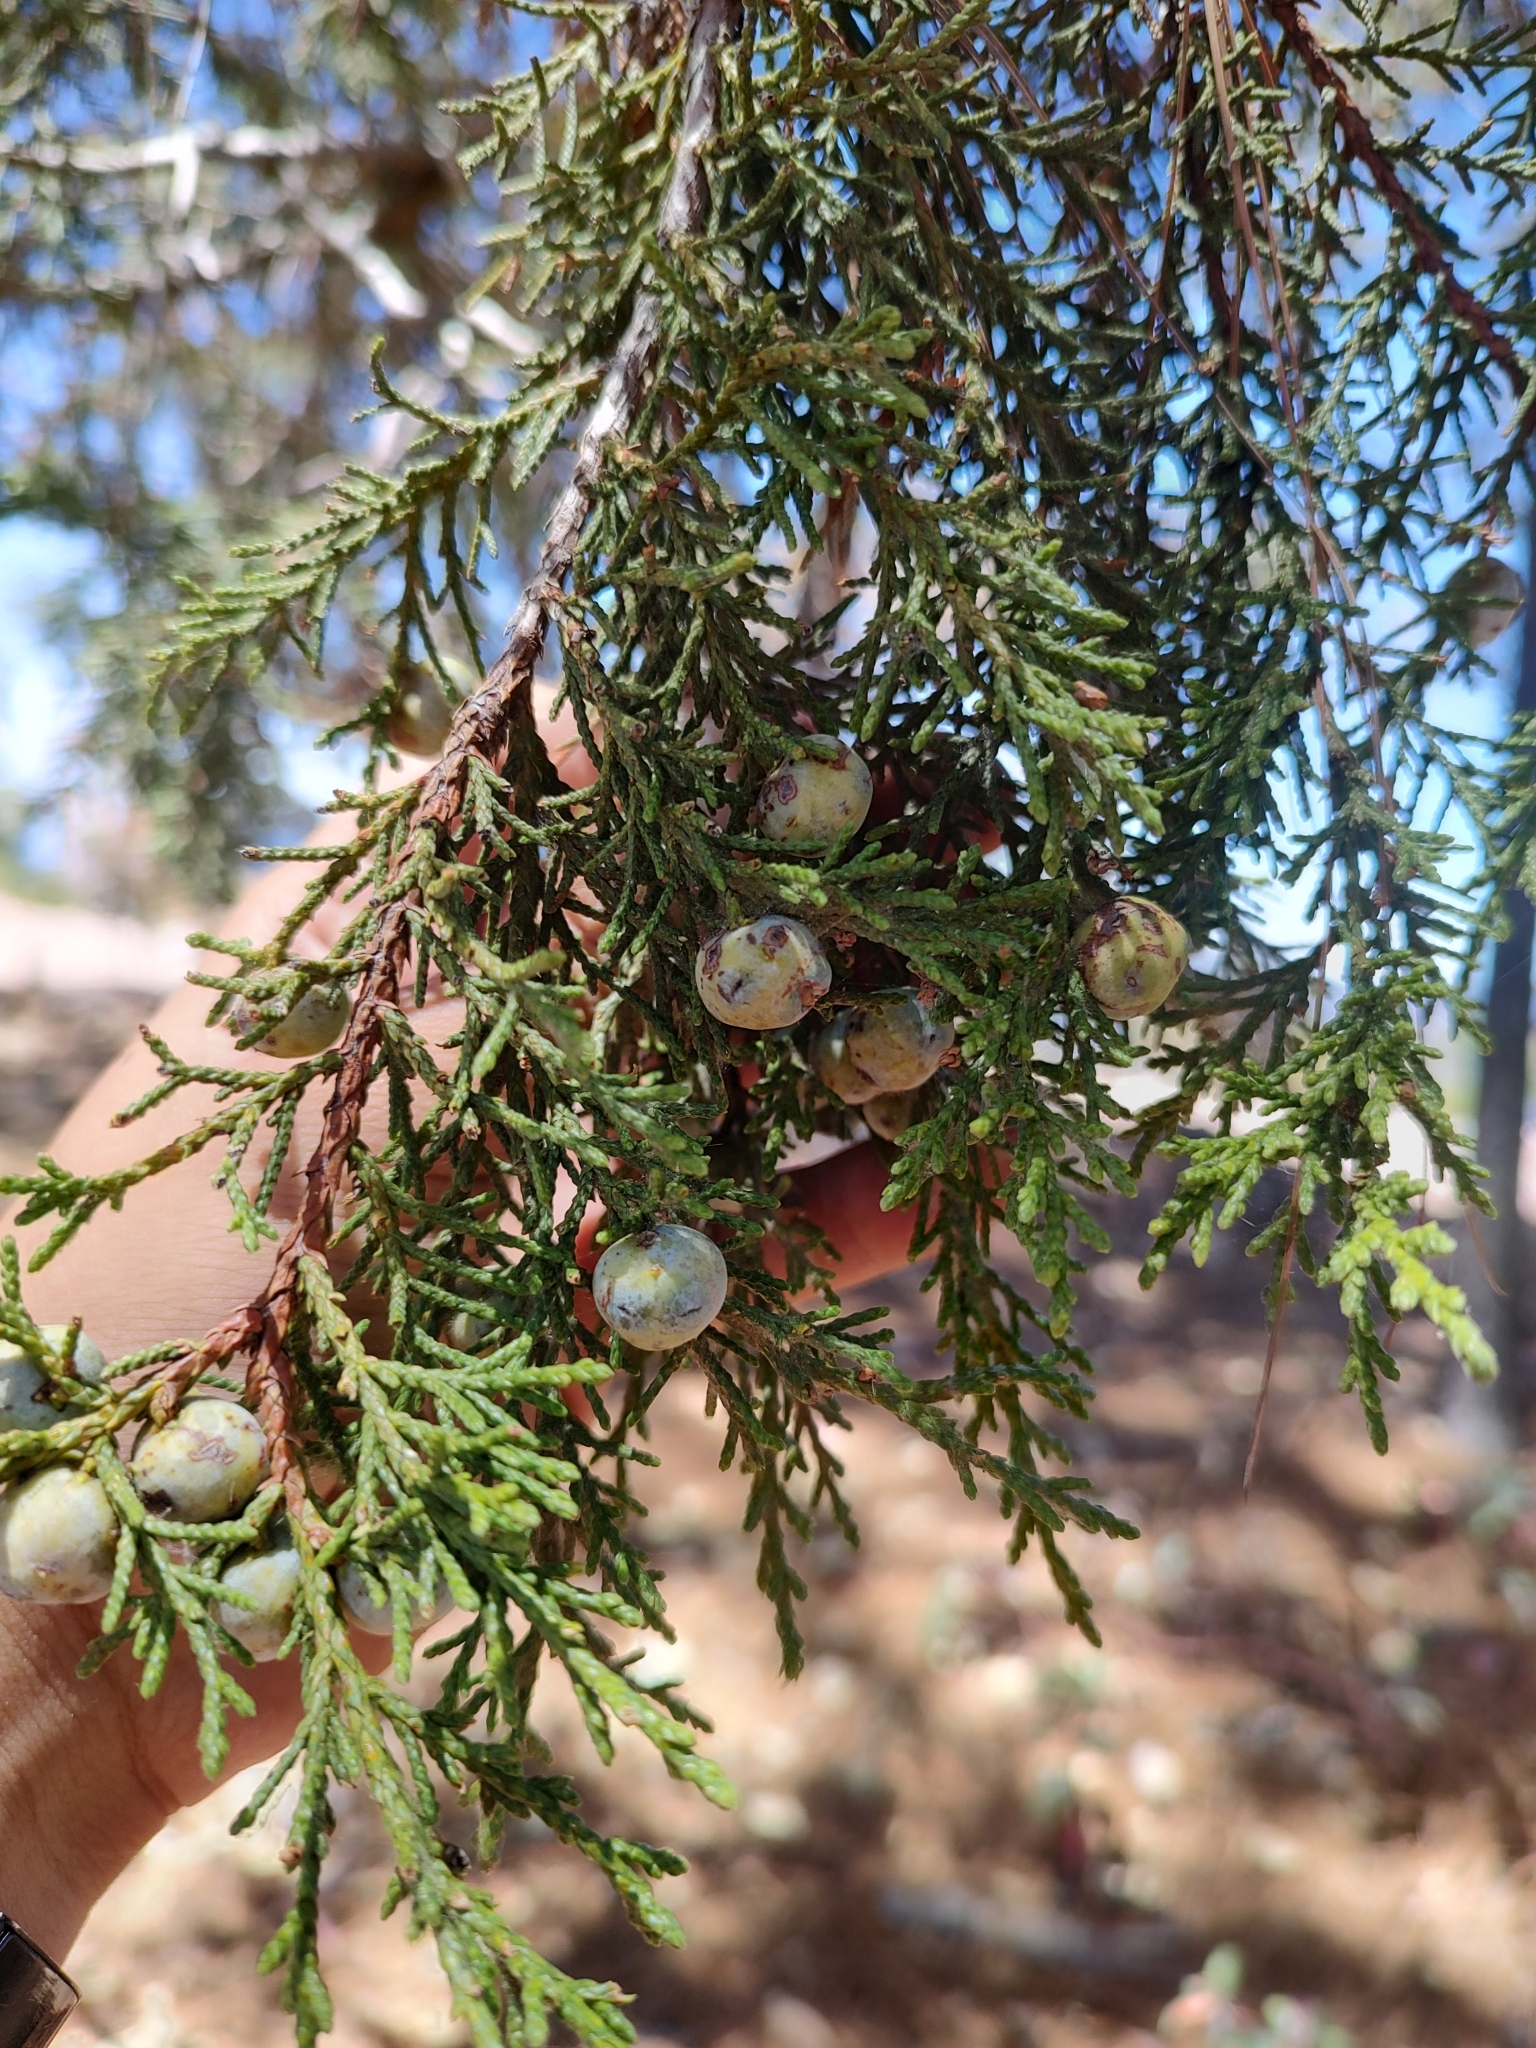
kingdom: Plantae
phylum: Tracheophyta
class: Pinopsida
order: Pinales
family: Cupressaceae
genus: Juniperus
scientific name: Juniperus deppeana
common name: Alligator juniper
